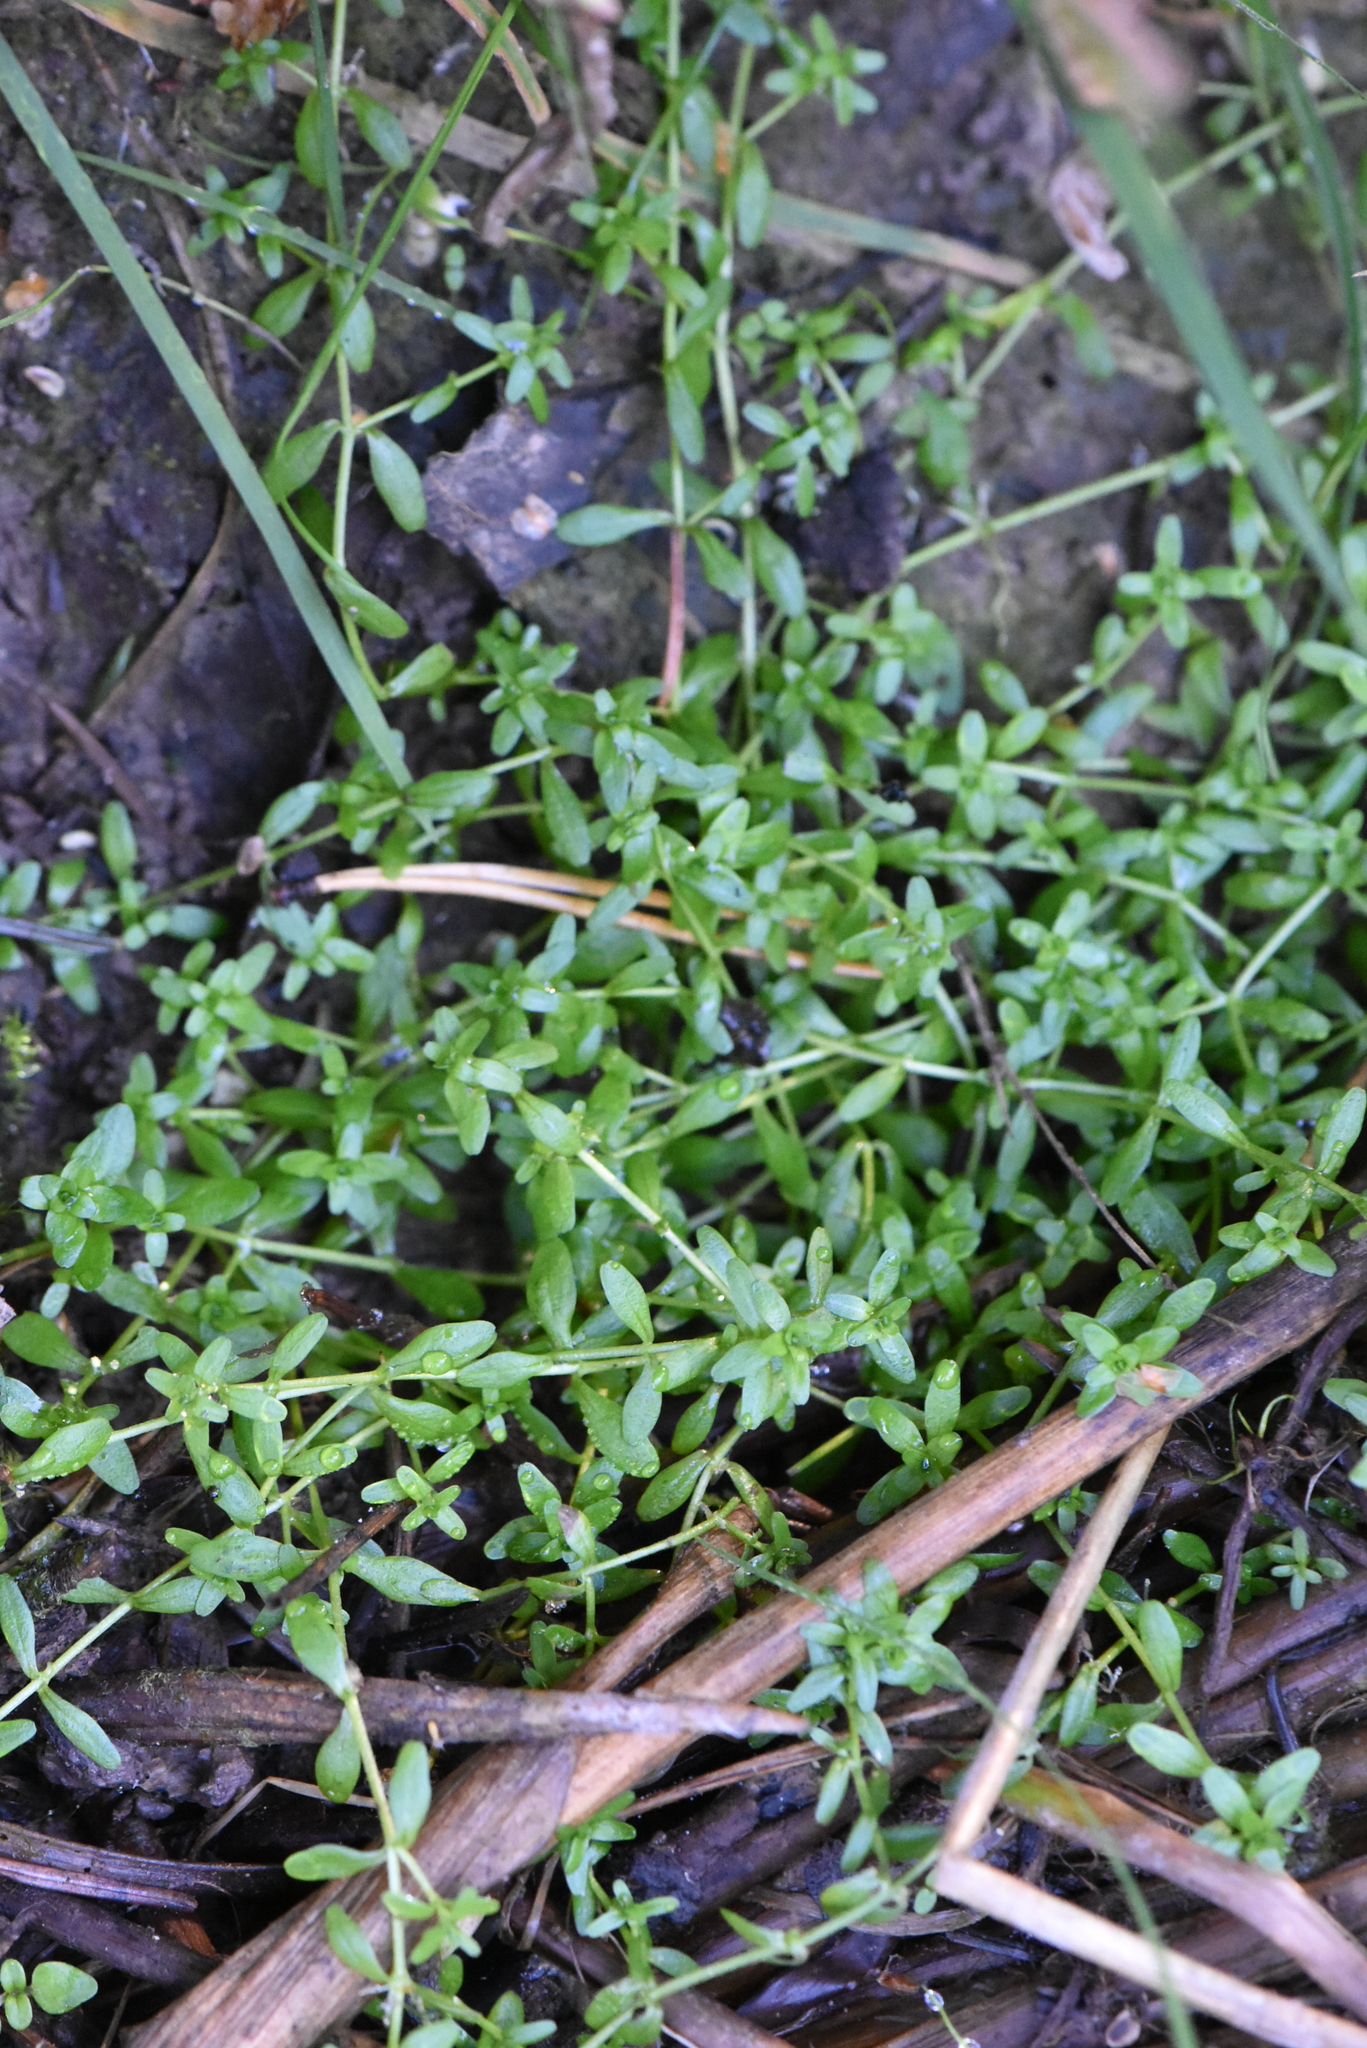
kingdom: Plantae
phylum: Tracheophyta
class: Magnoliopsida
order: Lamiales
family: Plantaginaceae
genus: Callitriche
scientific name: Callitriche
